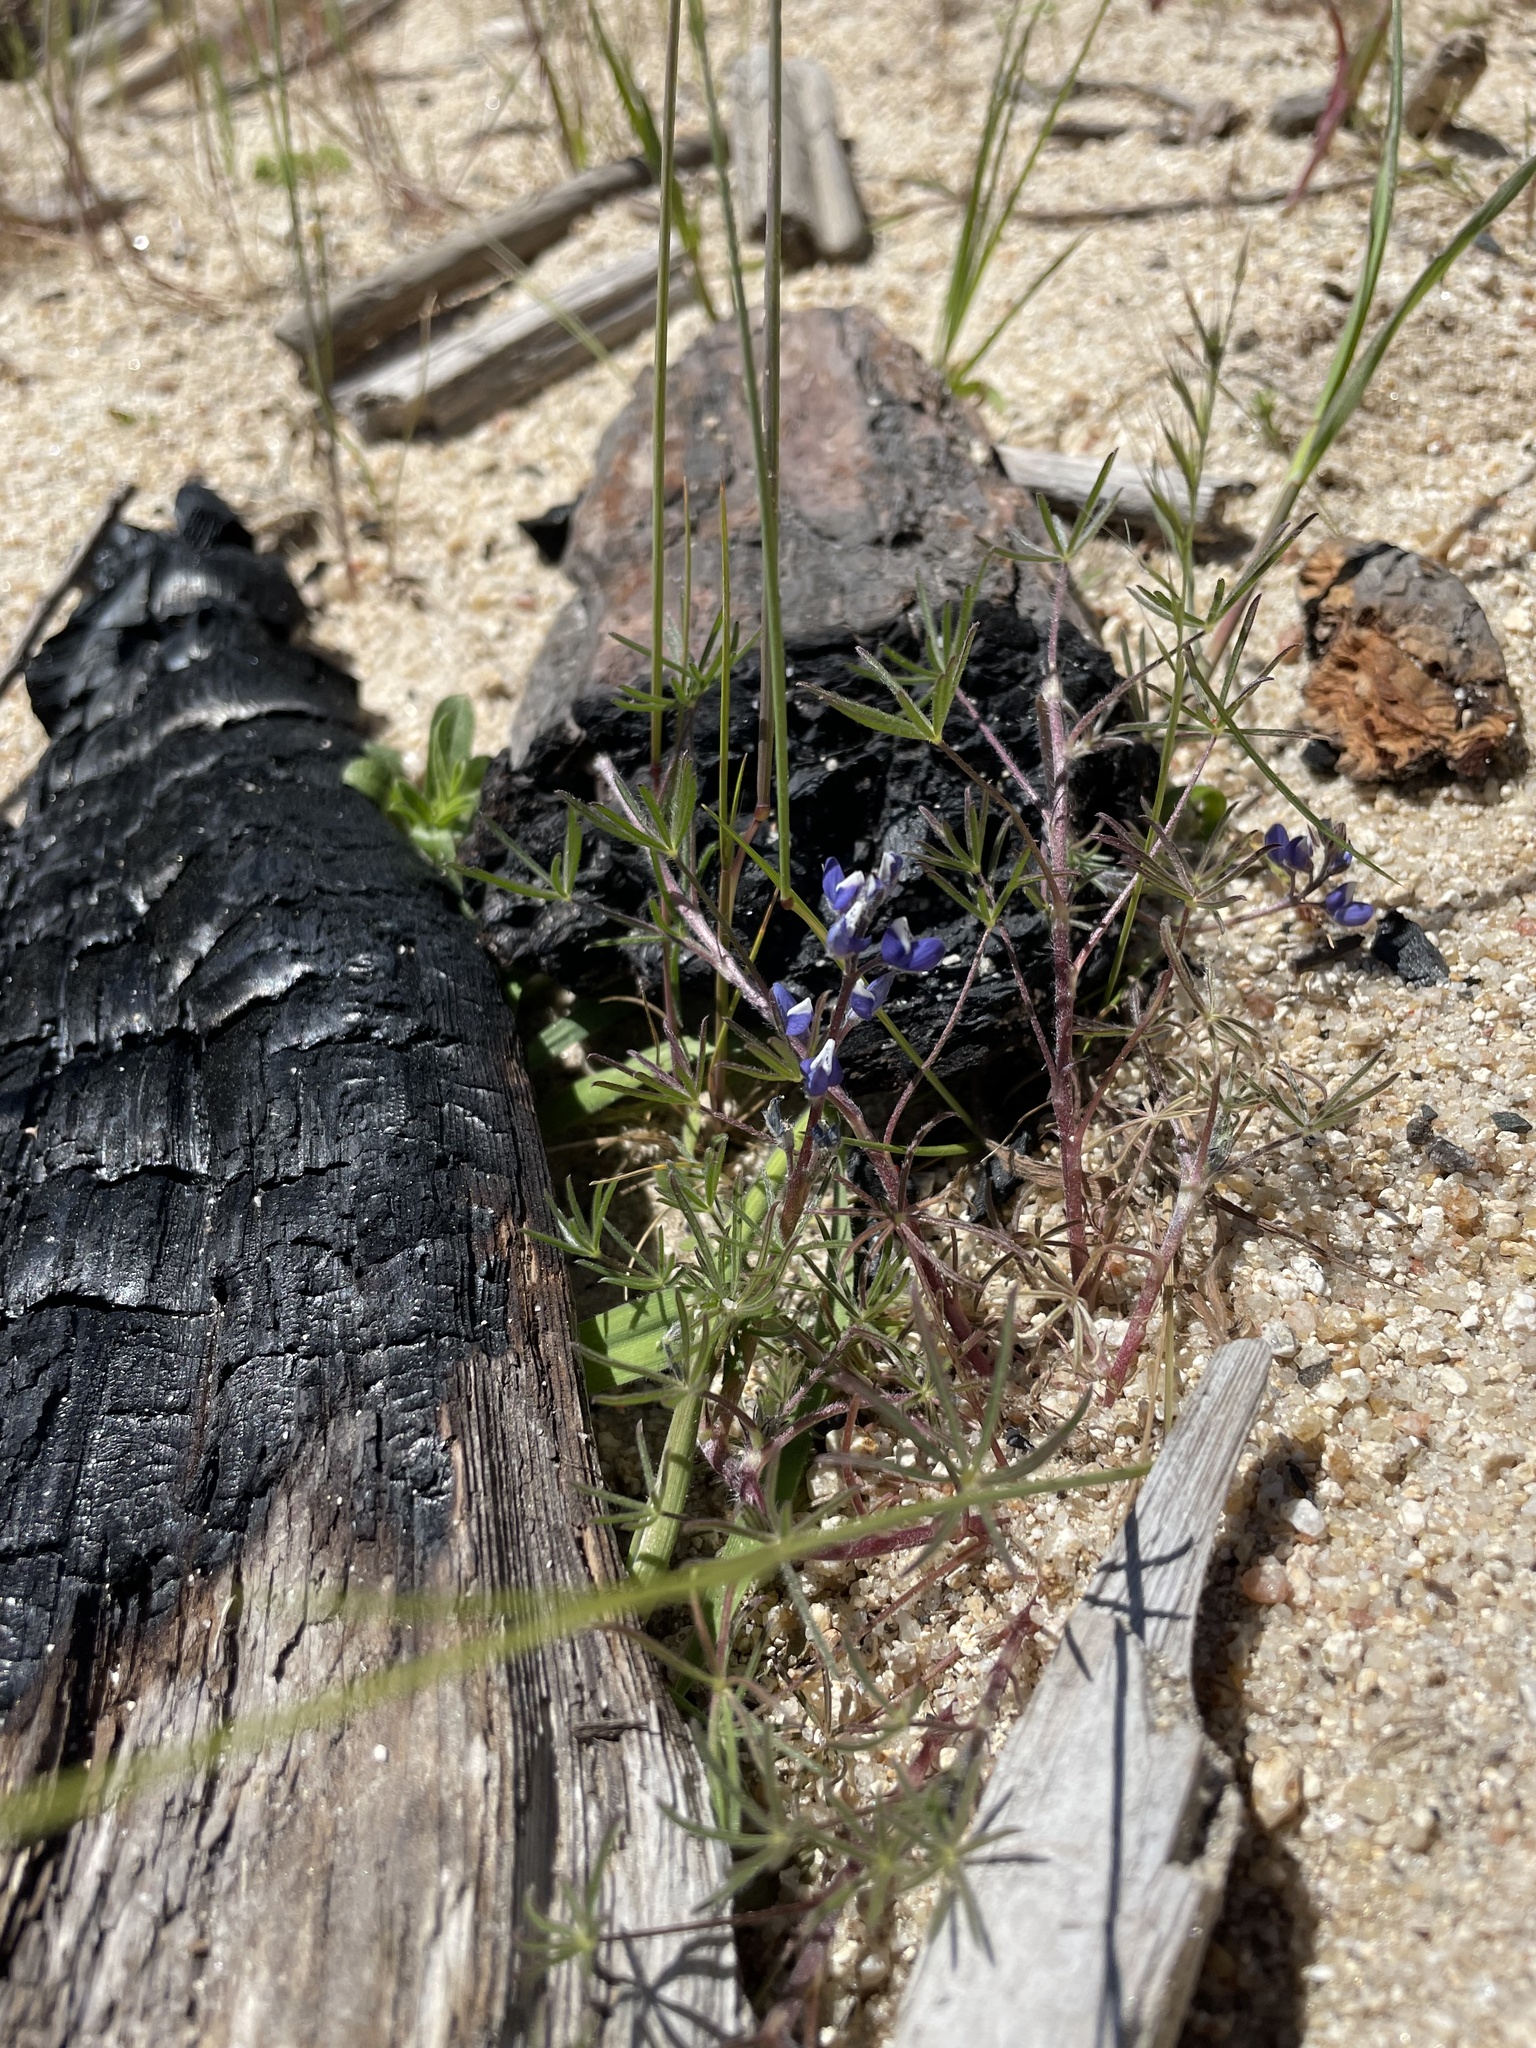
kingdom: Plantae
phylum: Tracheophyta
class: Magnoliopsida
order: Fabales
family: Fabaceae
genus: Lupinus
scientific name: Lupinus bicolor
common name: Miniature lupine
